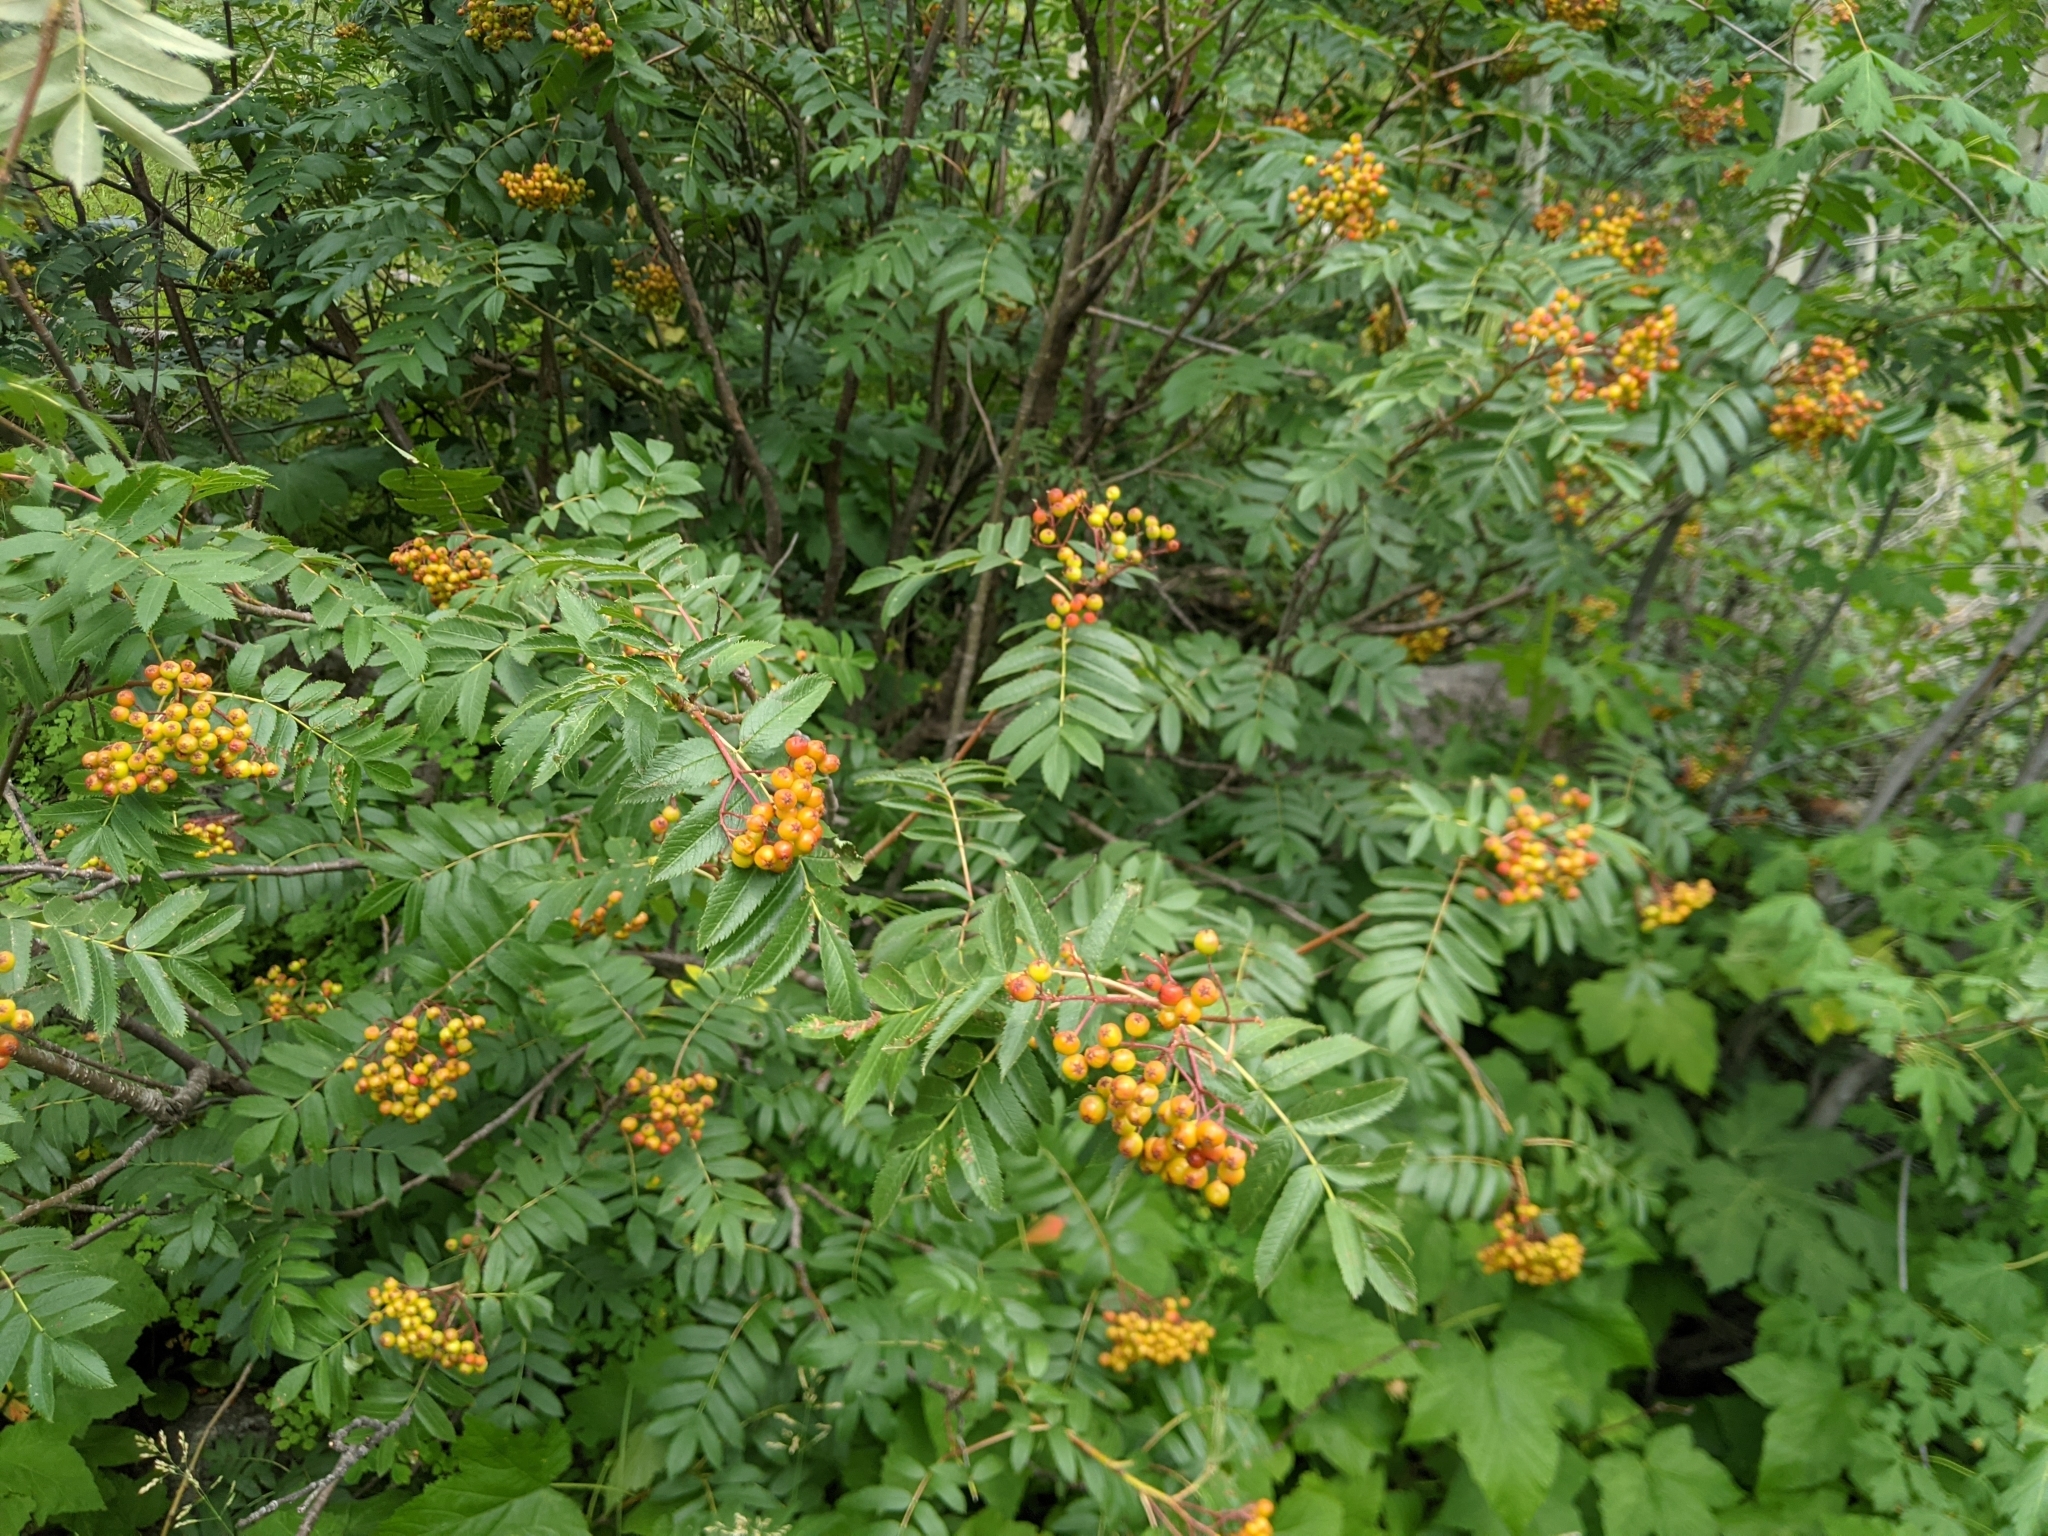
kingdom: Plantae
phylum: Tracheophyta
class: Magnoliopsida
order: Rosales
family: Rosaceae
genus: Sorbus
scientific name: Sorbus scopulina
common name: Greene's mountain-ash
